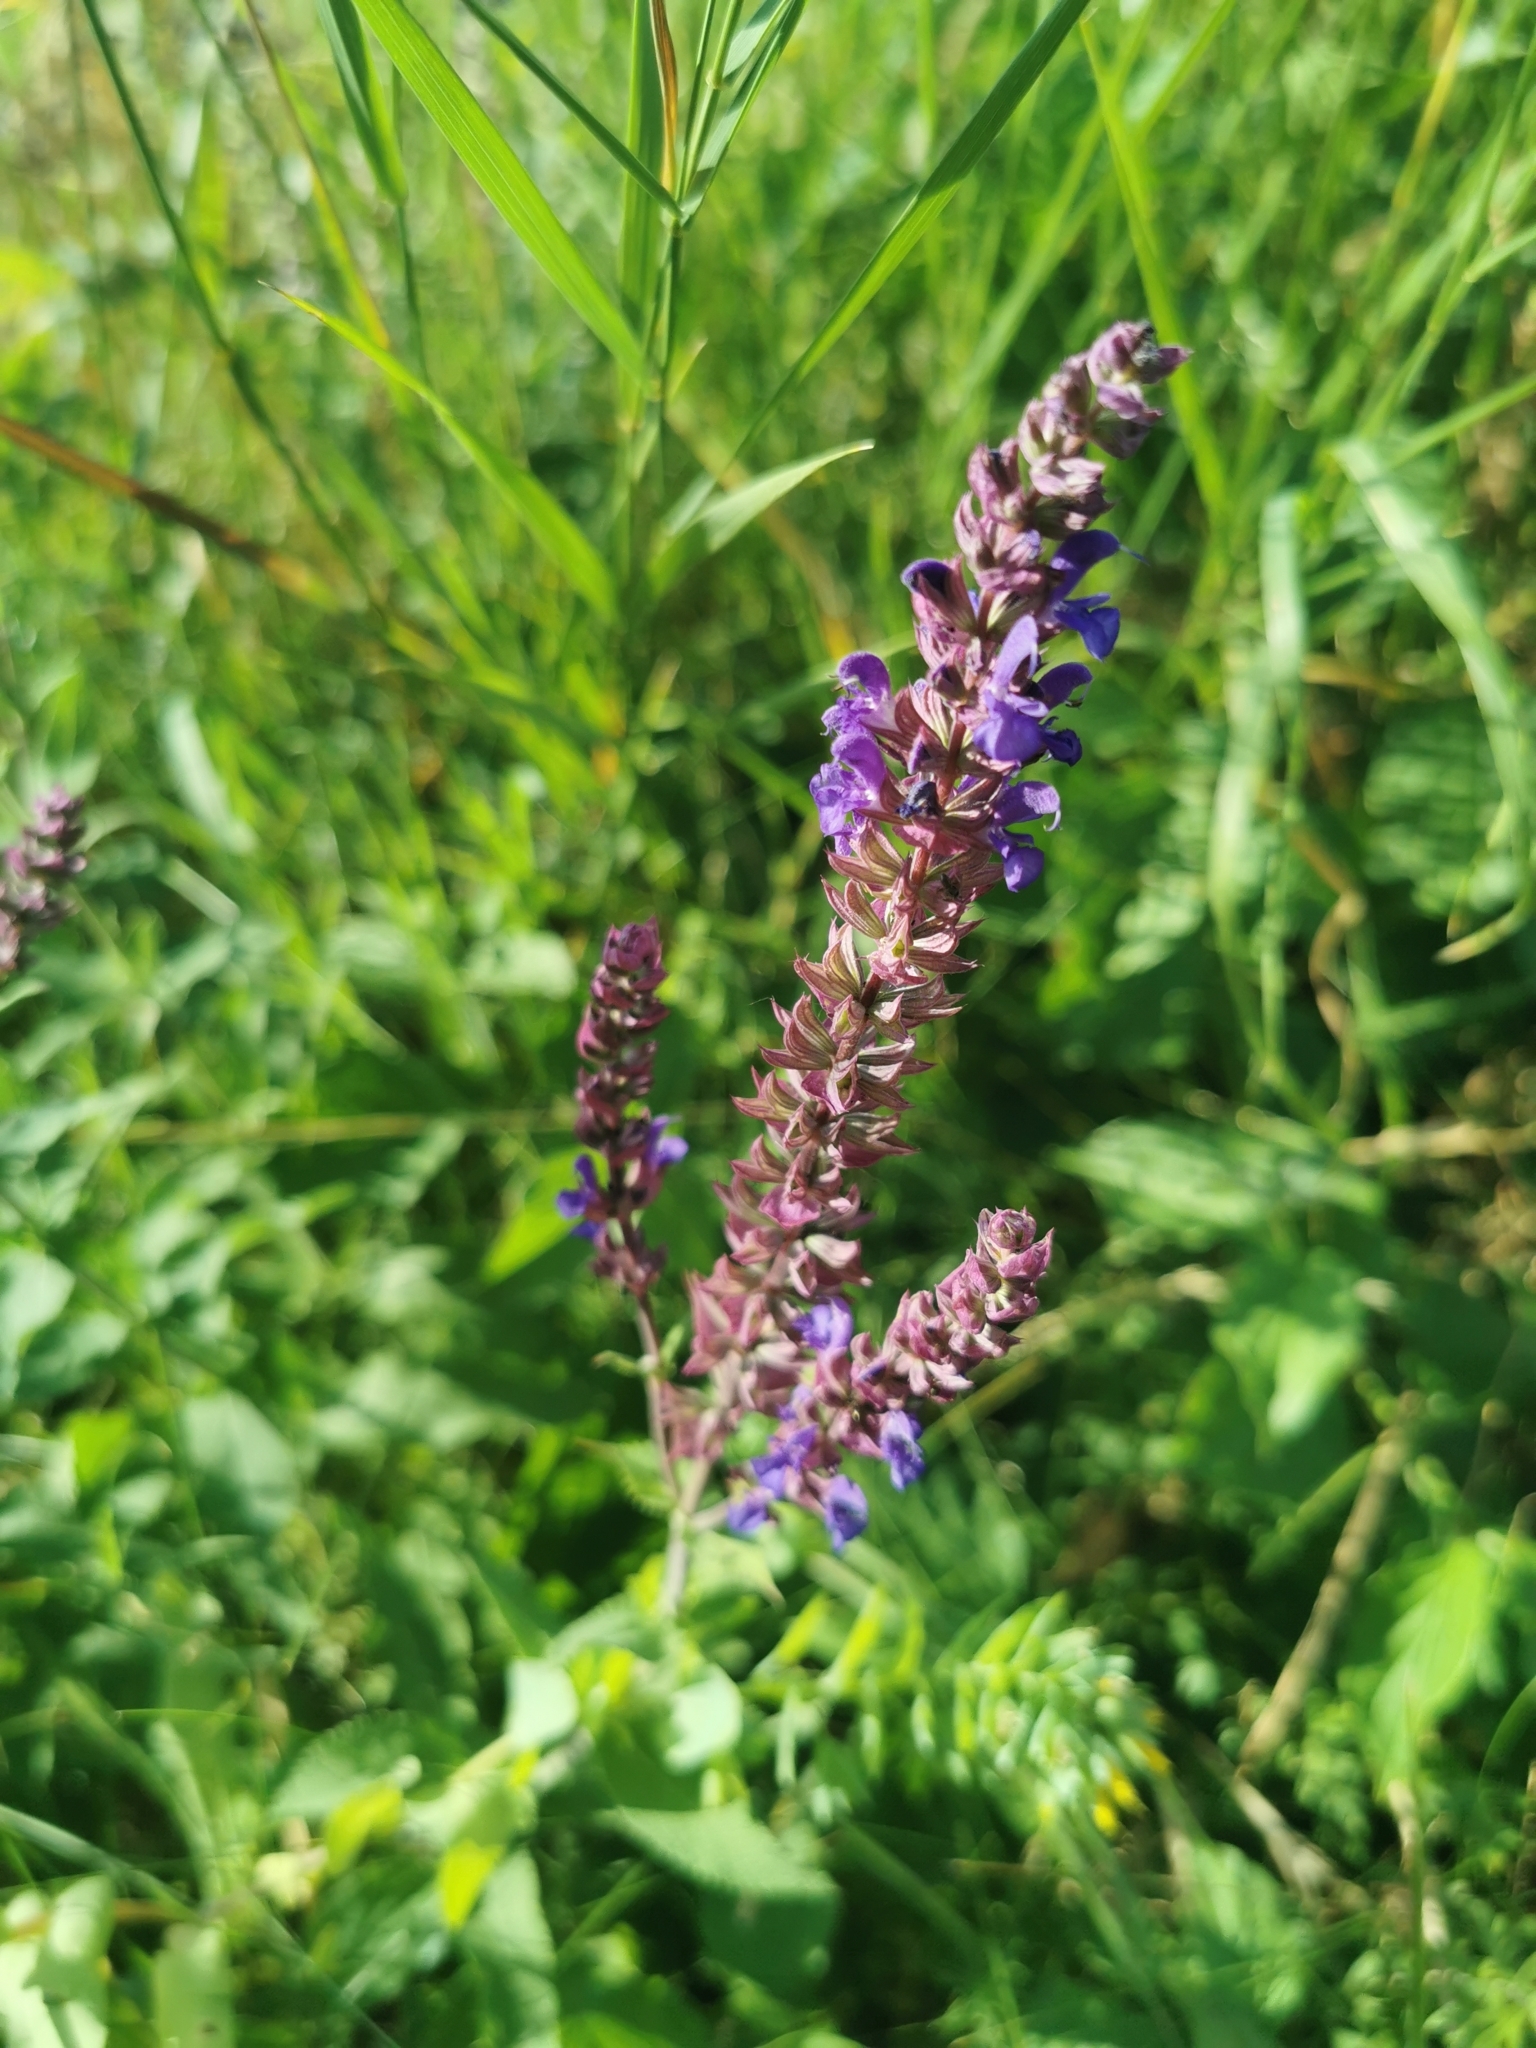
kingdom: Plantae
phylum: Tracheophyta
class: Magnoliopsida
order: Lamiales
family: Lamiaceae
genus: Salvia
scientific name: Salvia nemorosa
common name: Balkan clary
